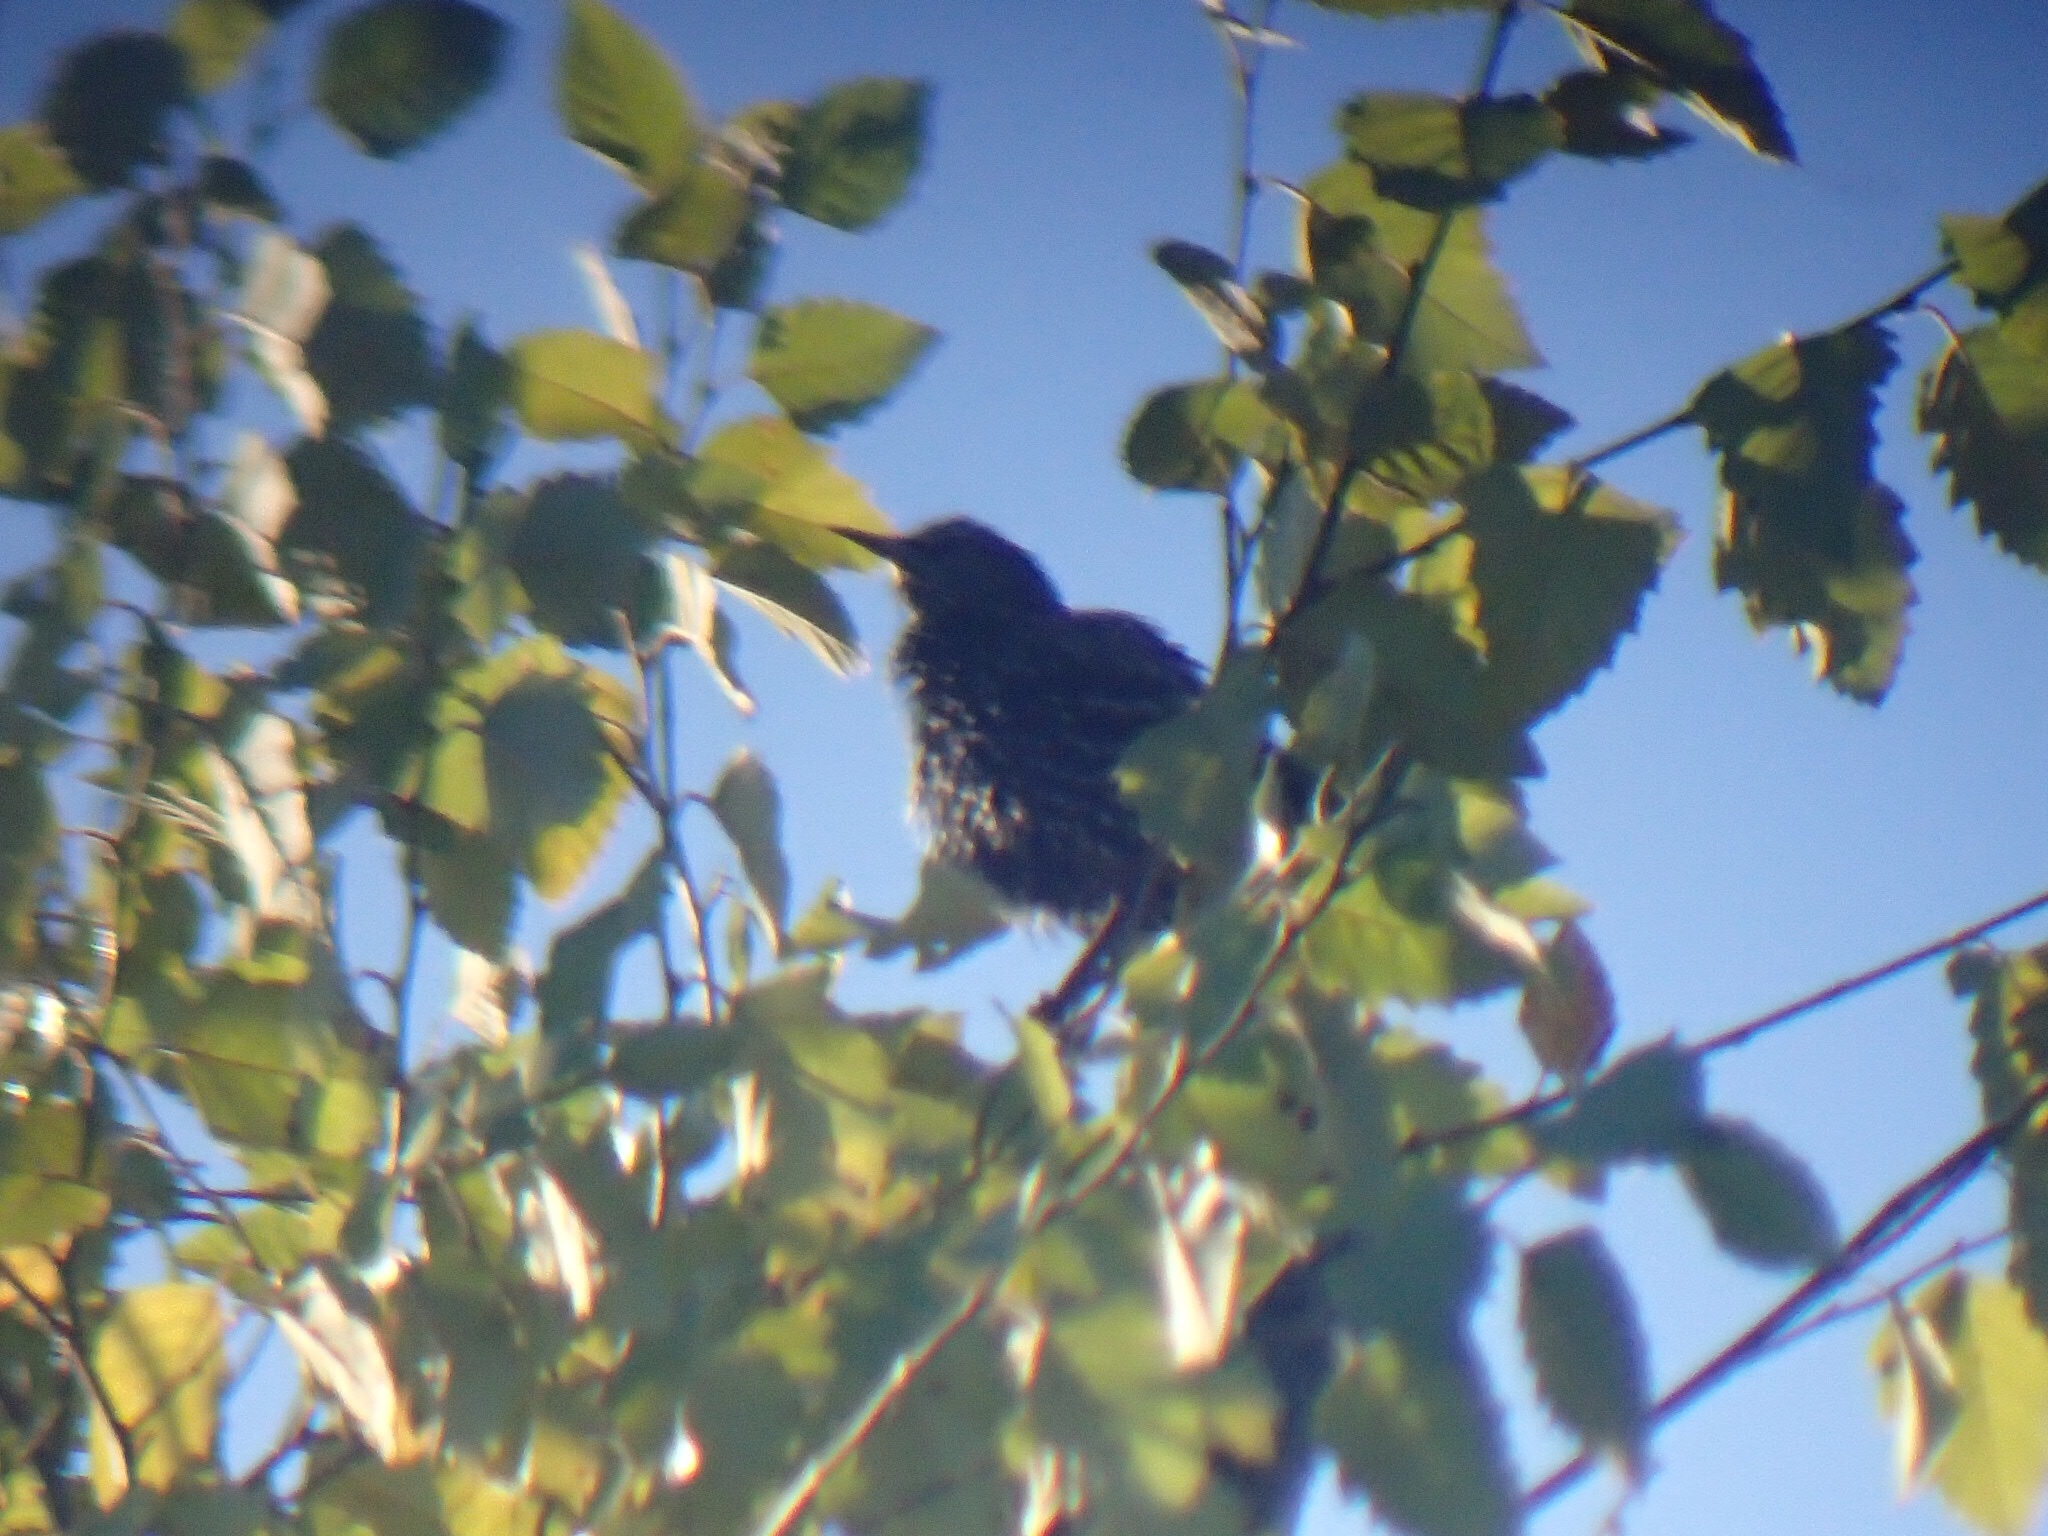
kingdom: Animalia
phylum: Chordata
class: Aves
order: Passeriformes
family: Sturnidae
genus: Sturnus
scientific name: Sturnus vulgaris
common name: Common starling
